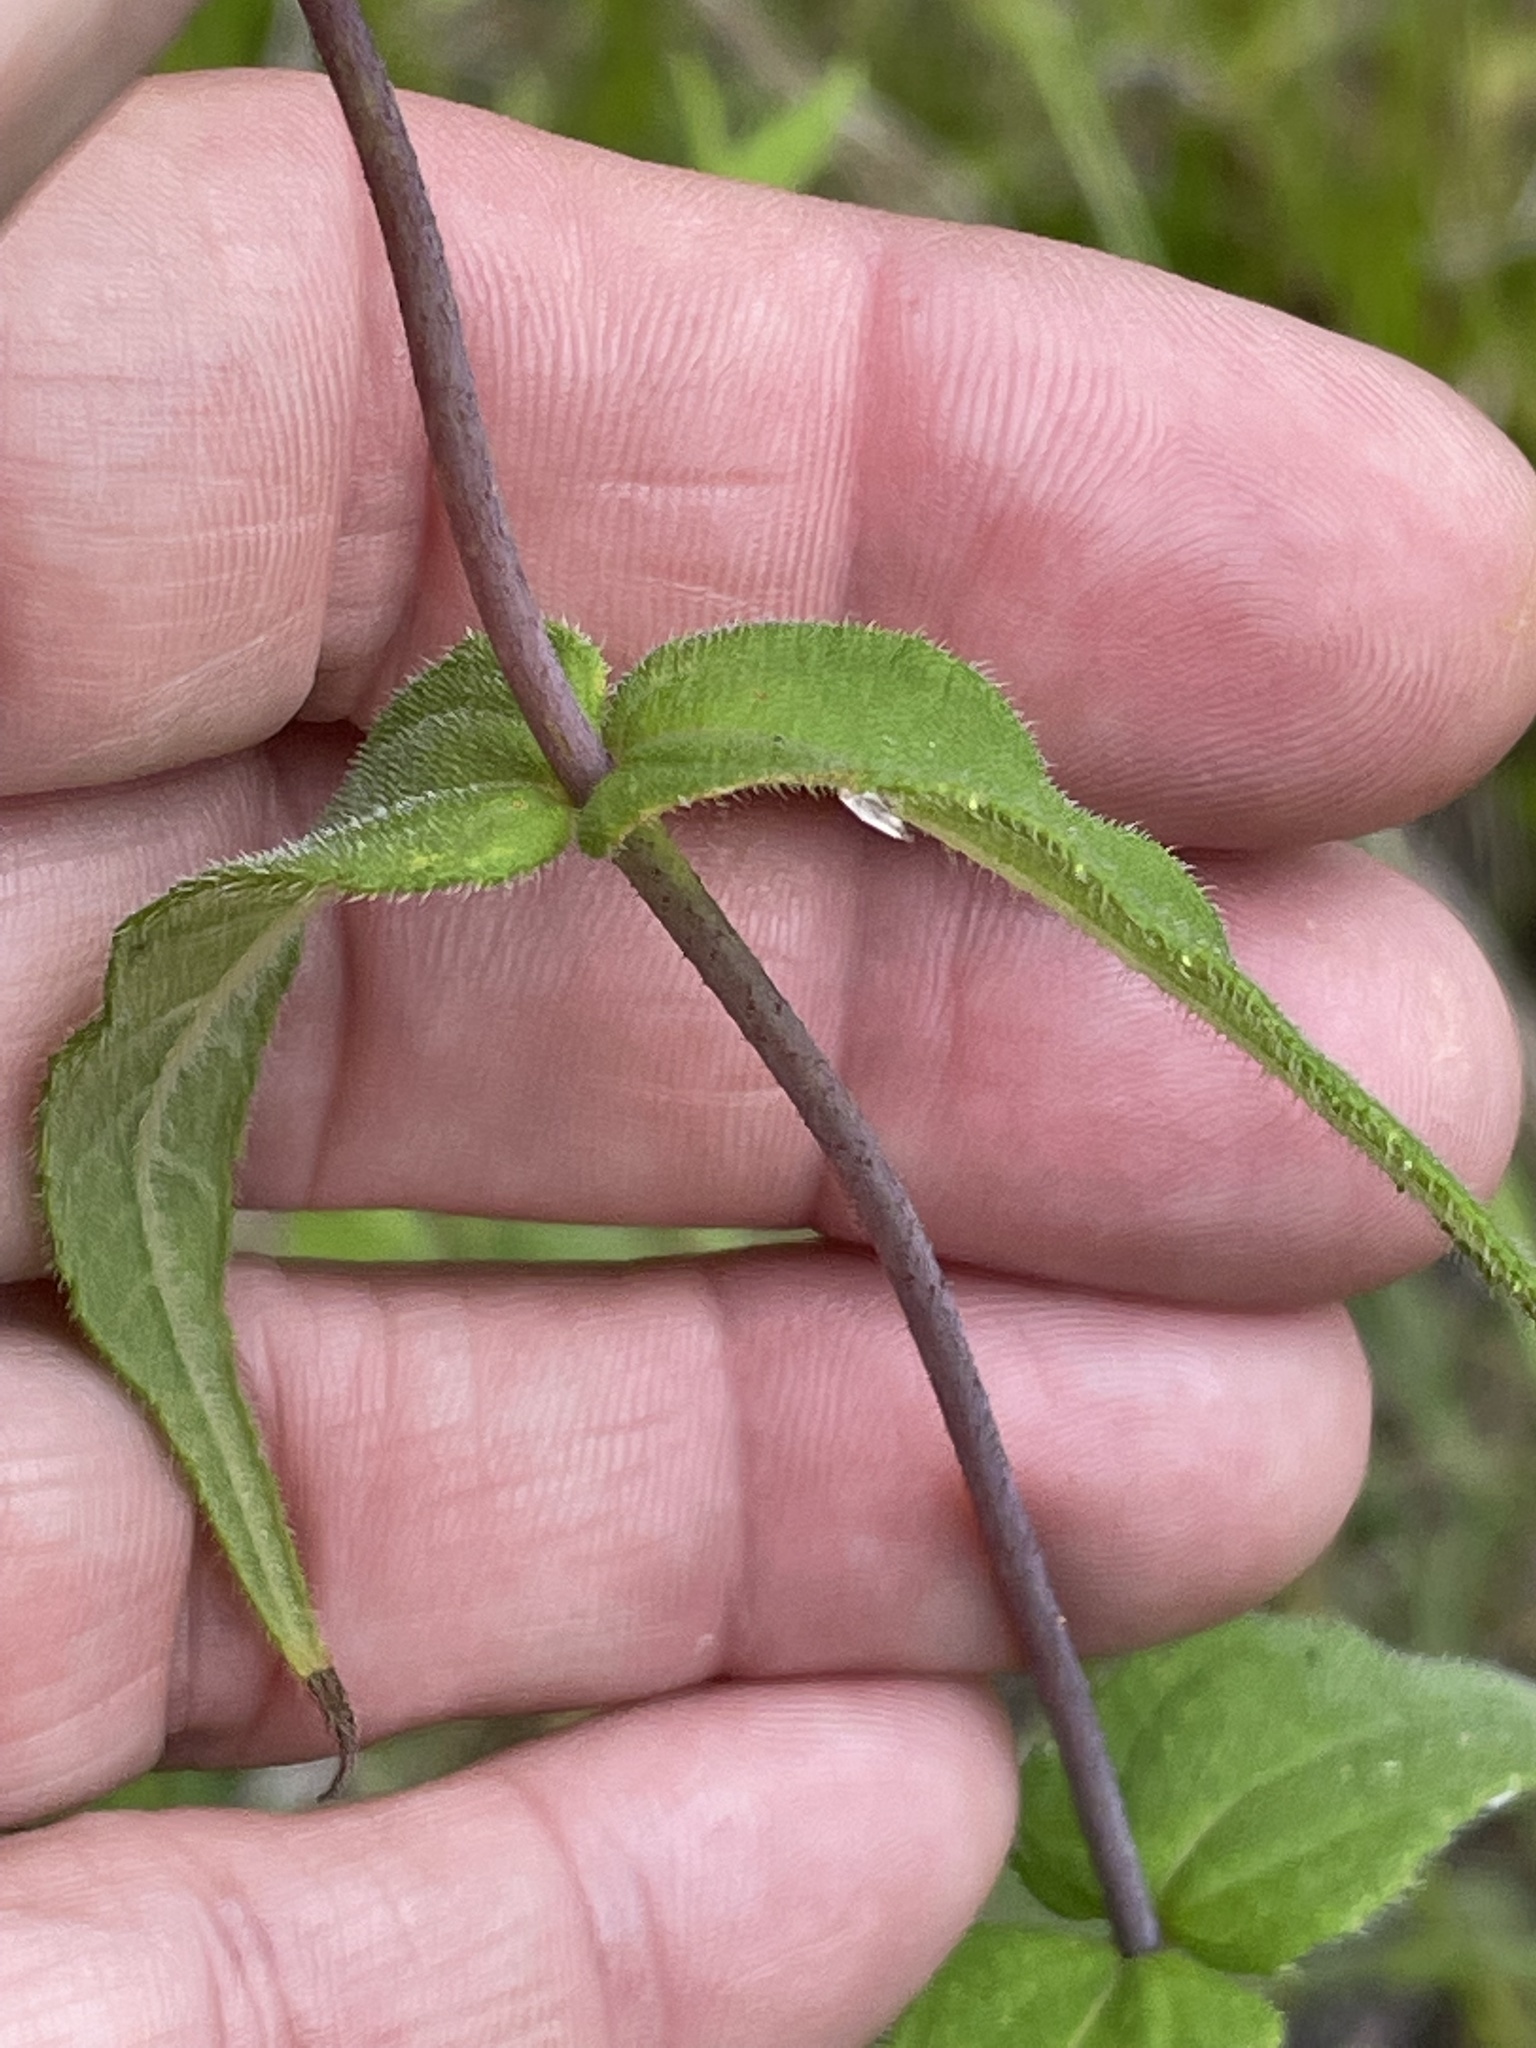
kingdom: Plantae
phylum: Tracheophyta
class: Magnoliopsida
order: Asterales
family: Asteraceae
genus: Helianthus
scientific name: Helianthus divaricatus
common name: Divergent sunflower
